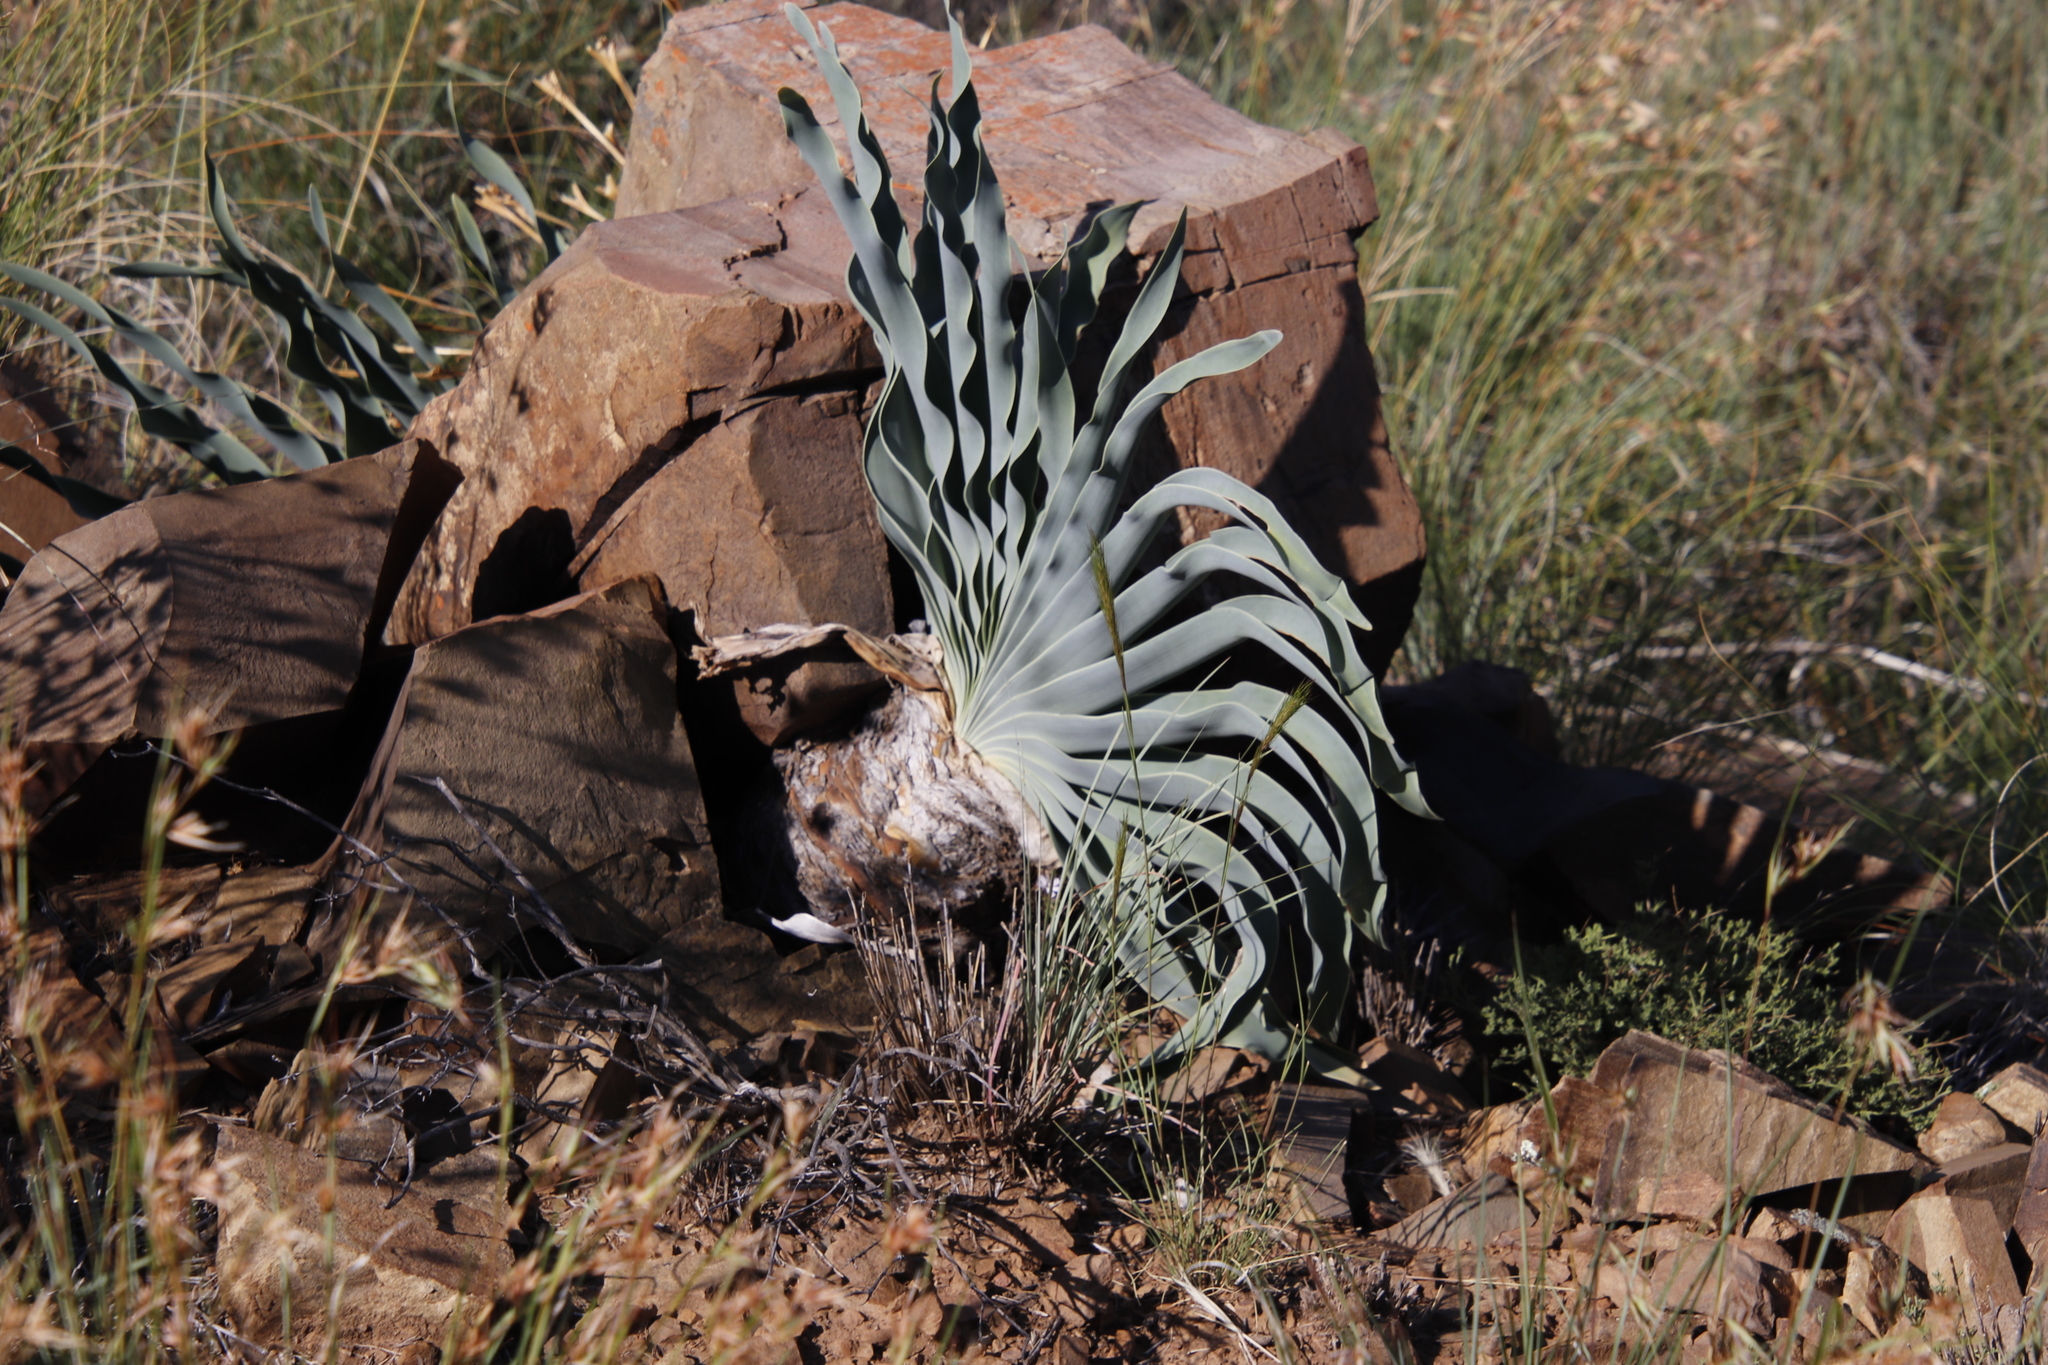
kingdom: Plantae
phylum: Tracheophyta
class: Liliopsida
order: Asparagales
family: Amaryllidaceae
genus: Boophone
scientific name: Boophone disticha
